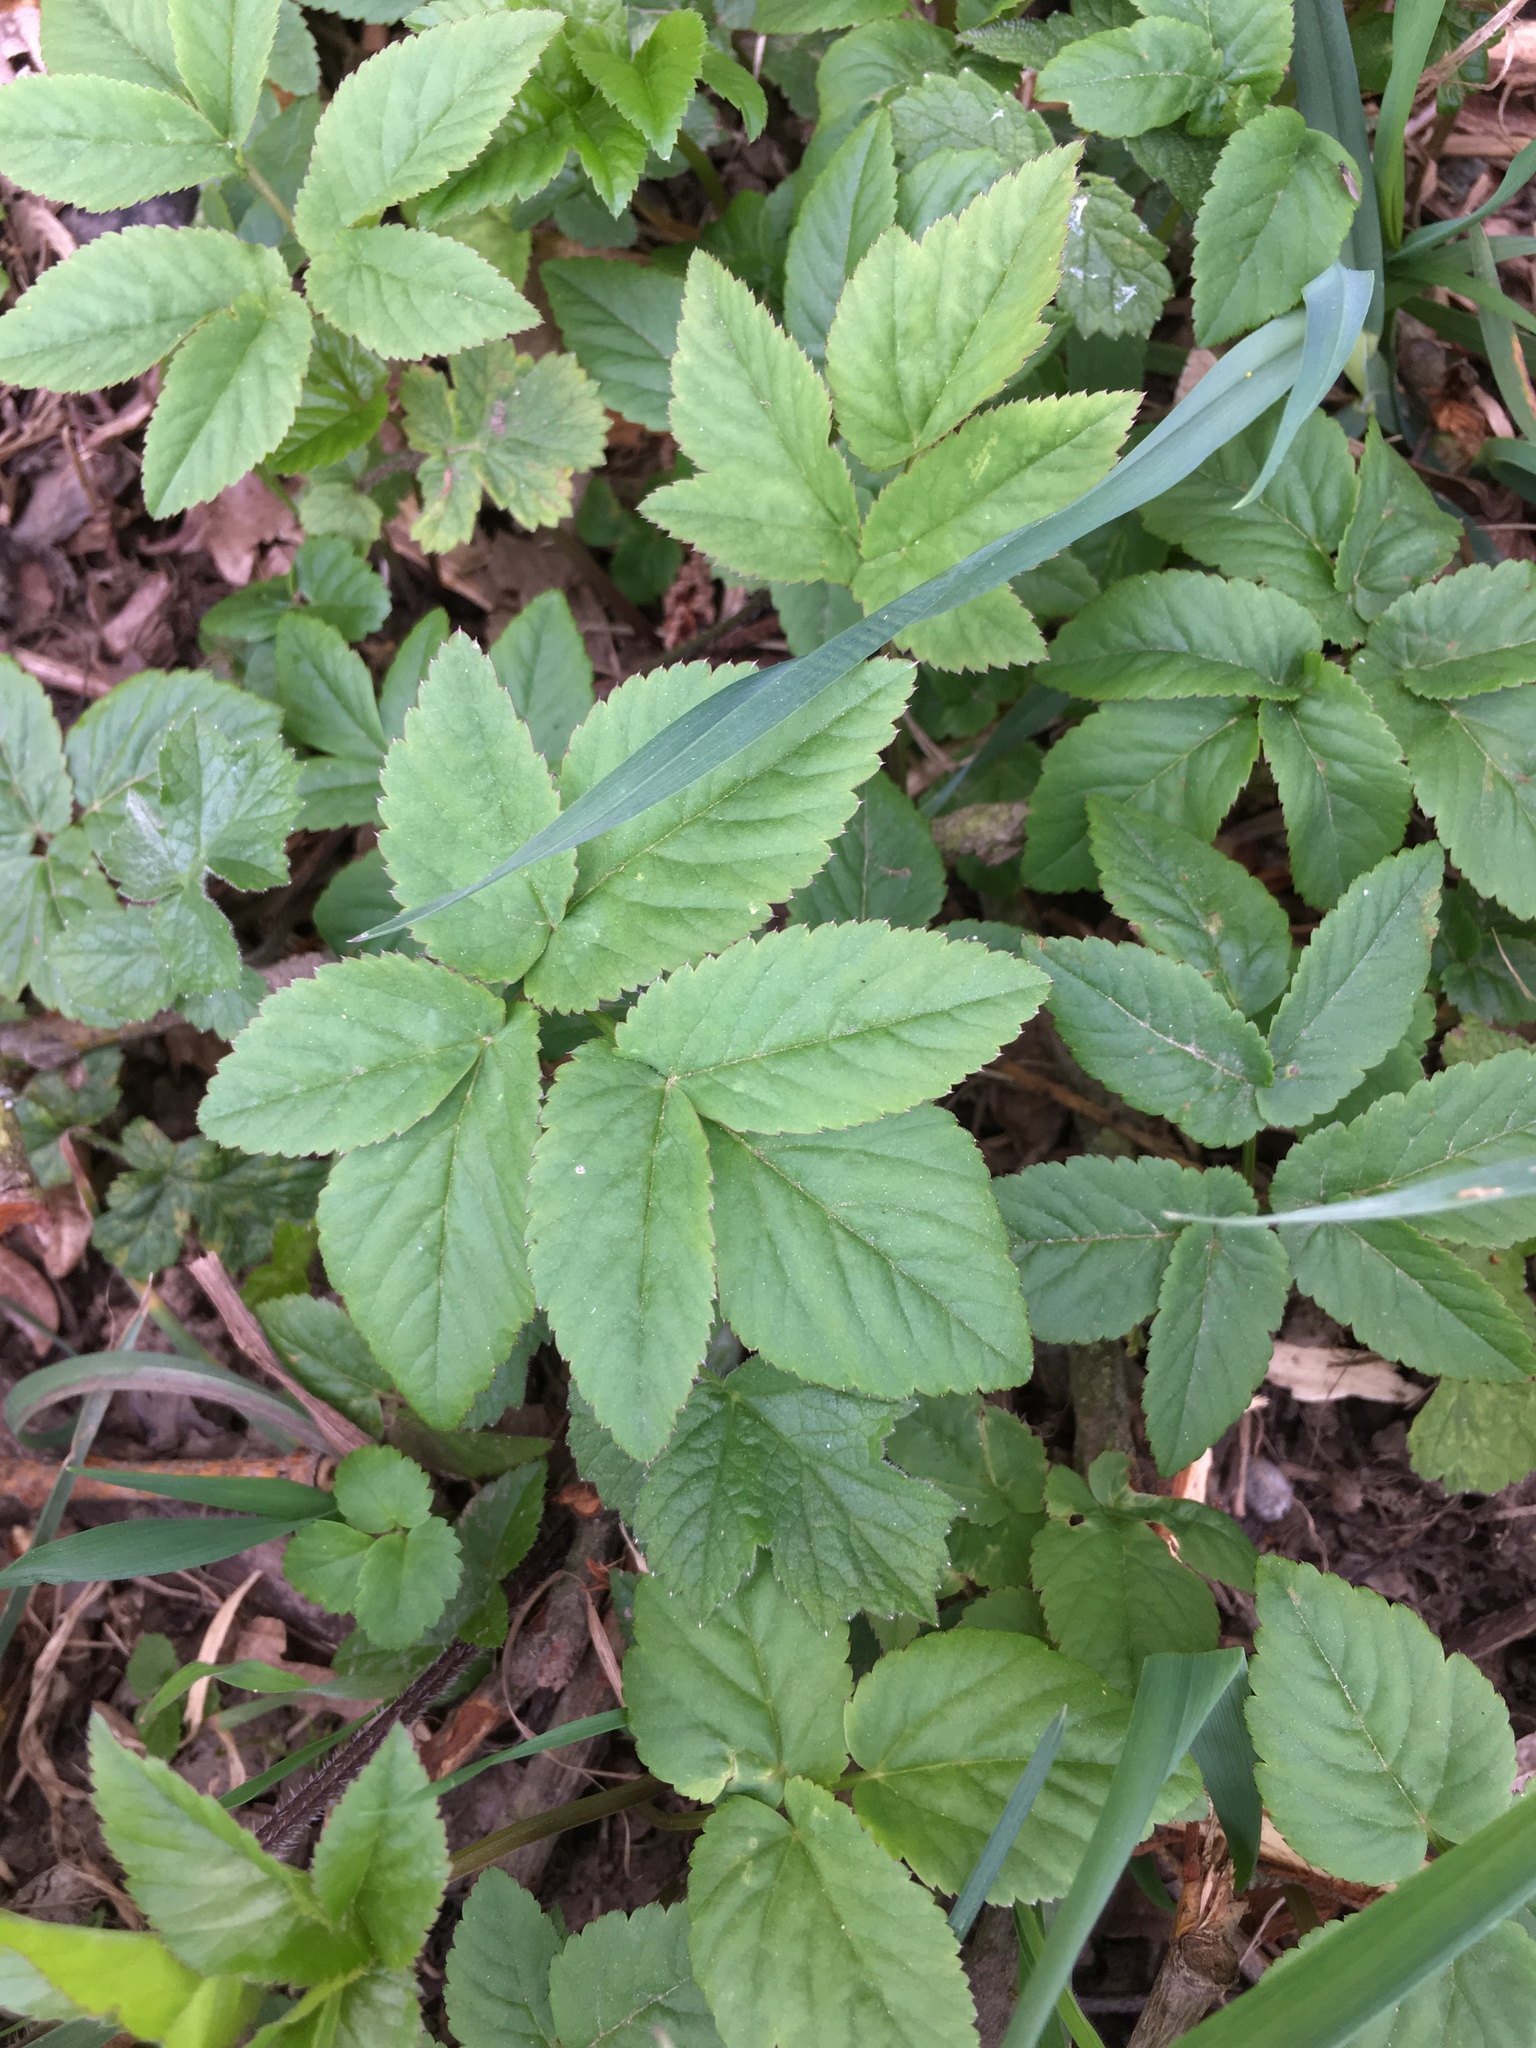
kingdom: Plantae
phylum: Tracheophyta
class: Magnoliopsida
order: Apiales
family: Apiaceae
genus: Aegopodium
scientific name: Aegopodium podagraria
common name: Ground-elder
